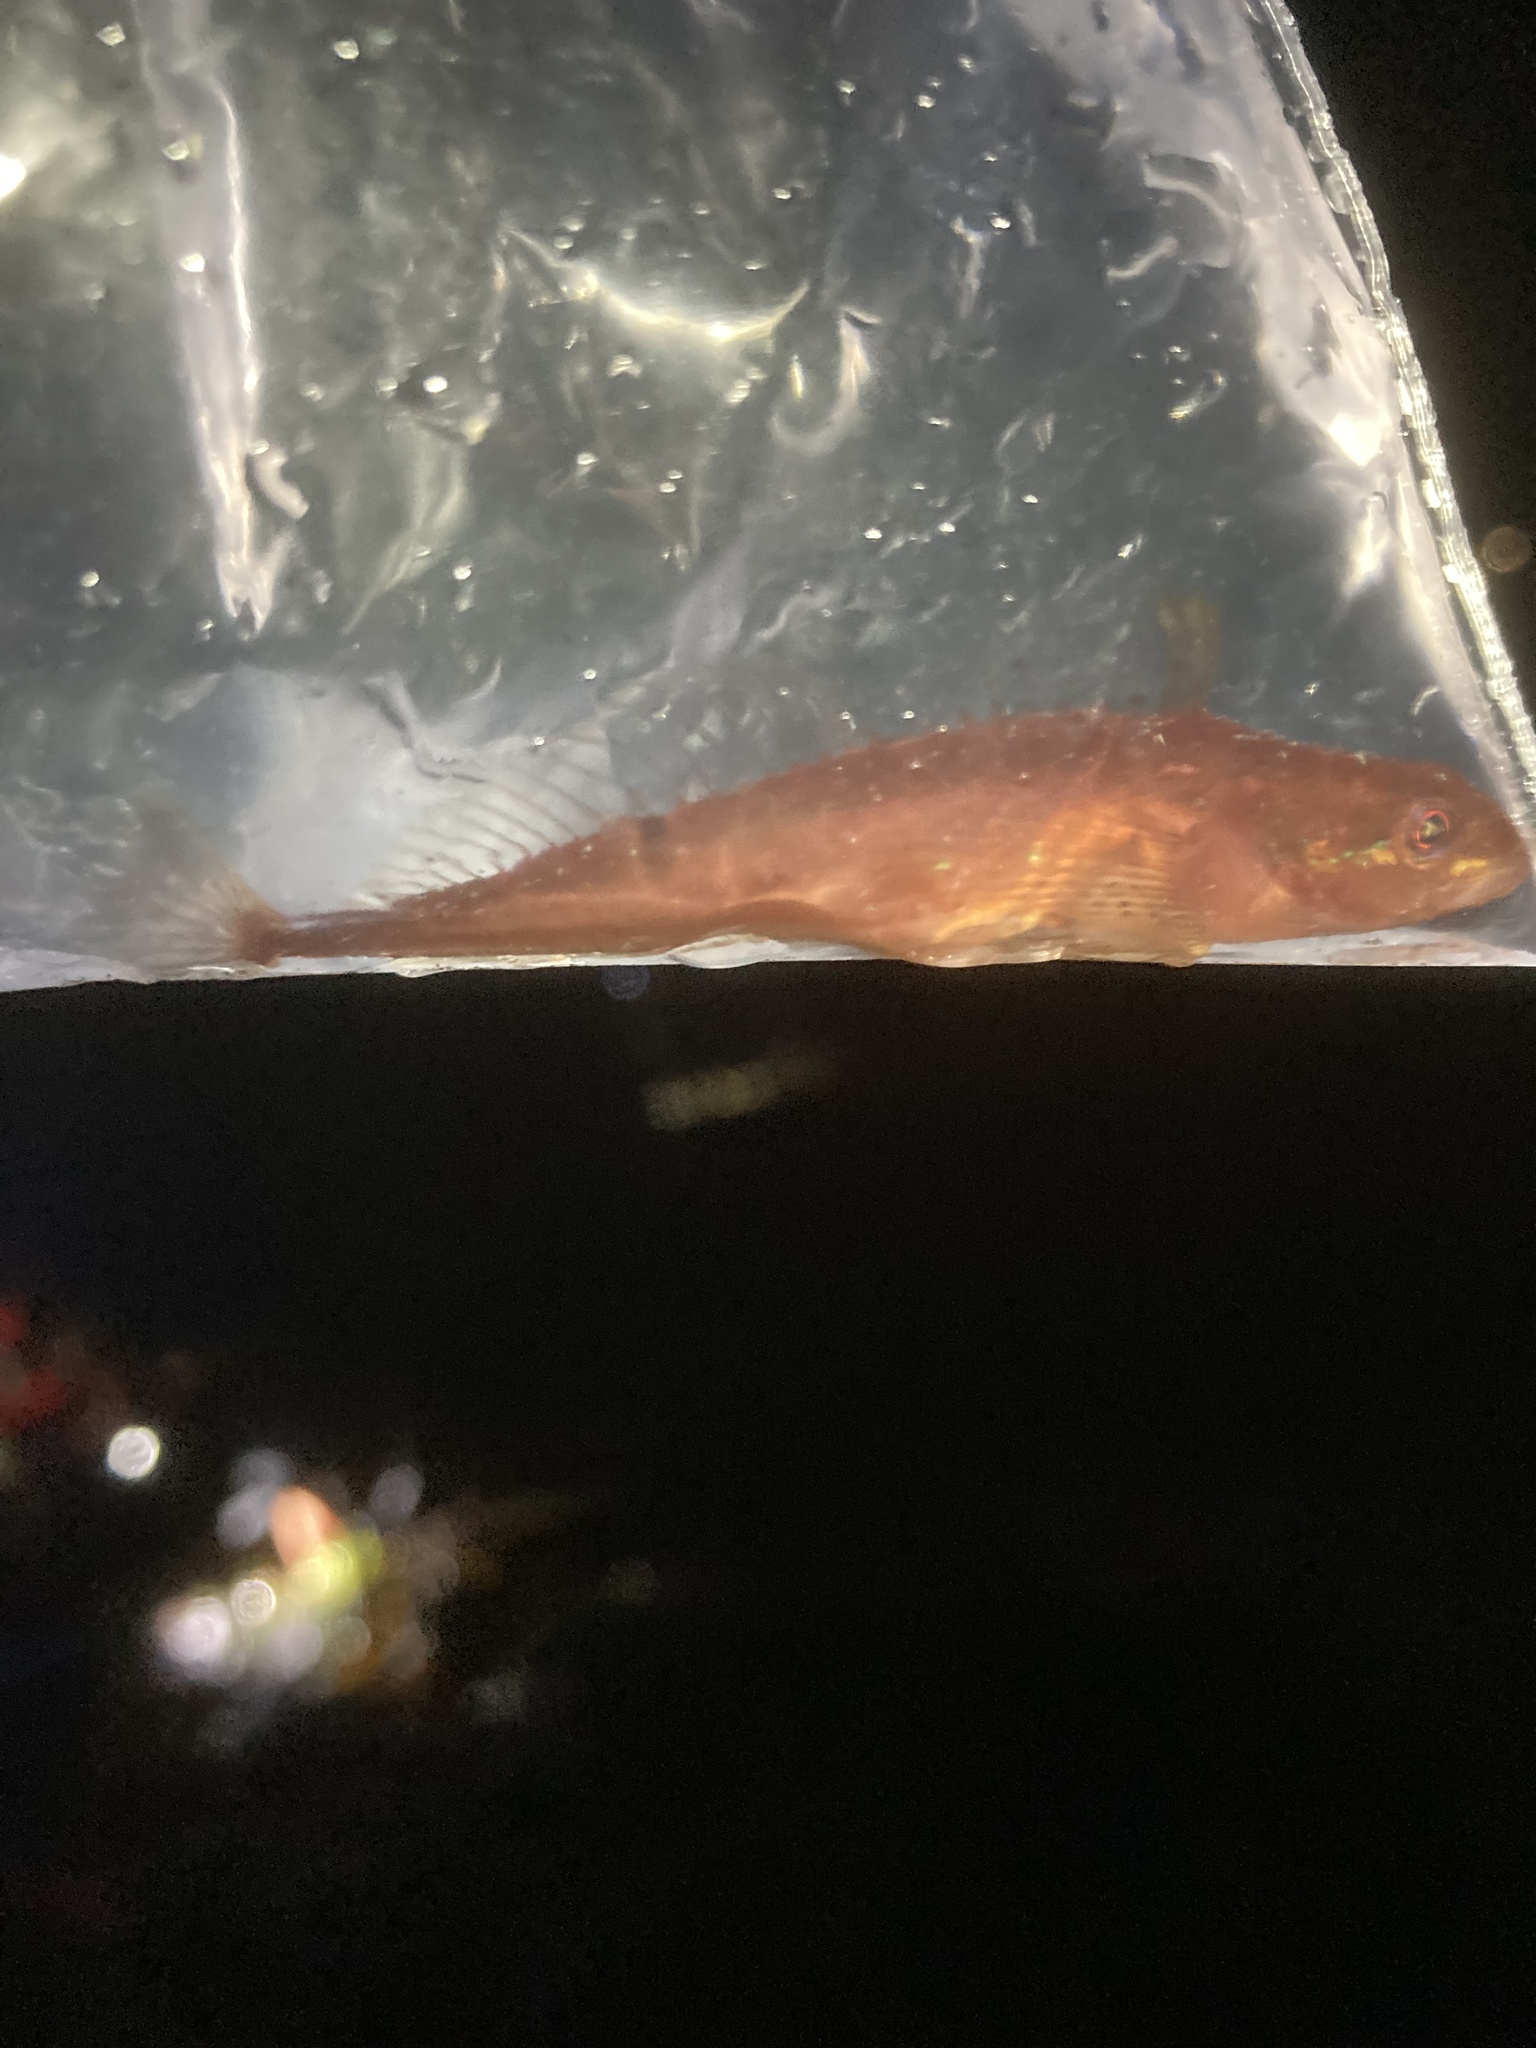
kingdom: Animalia
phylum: Chordata
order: Scorpaeniformes
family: Cottidae
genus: Synchirus
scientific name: Synchirus gilli
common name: Manacled sculpin
